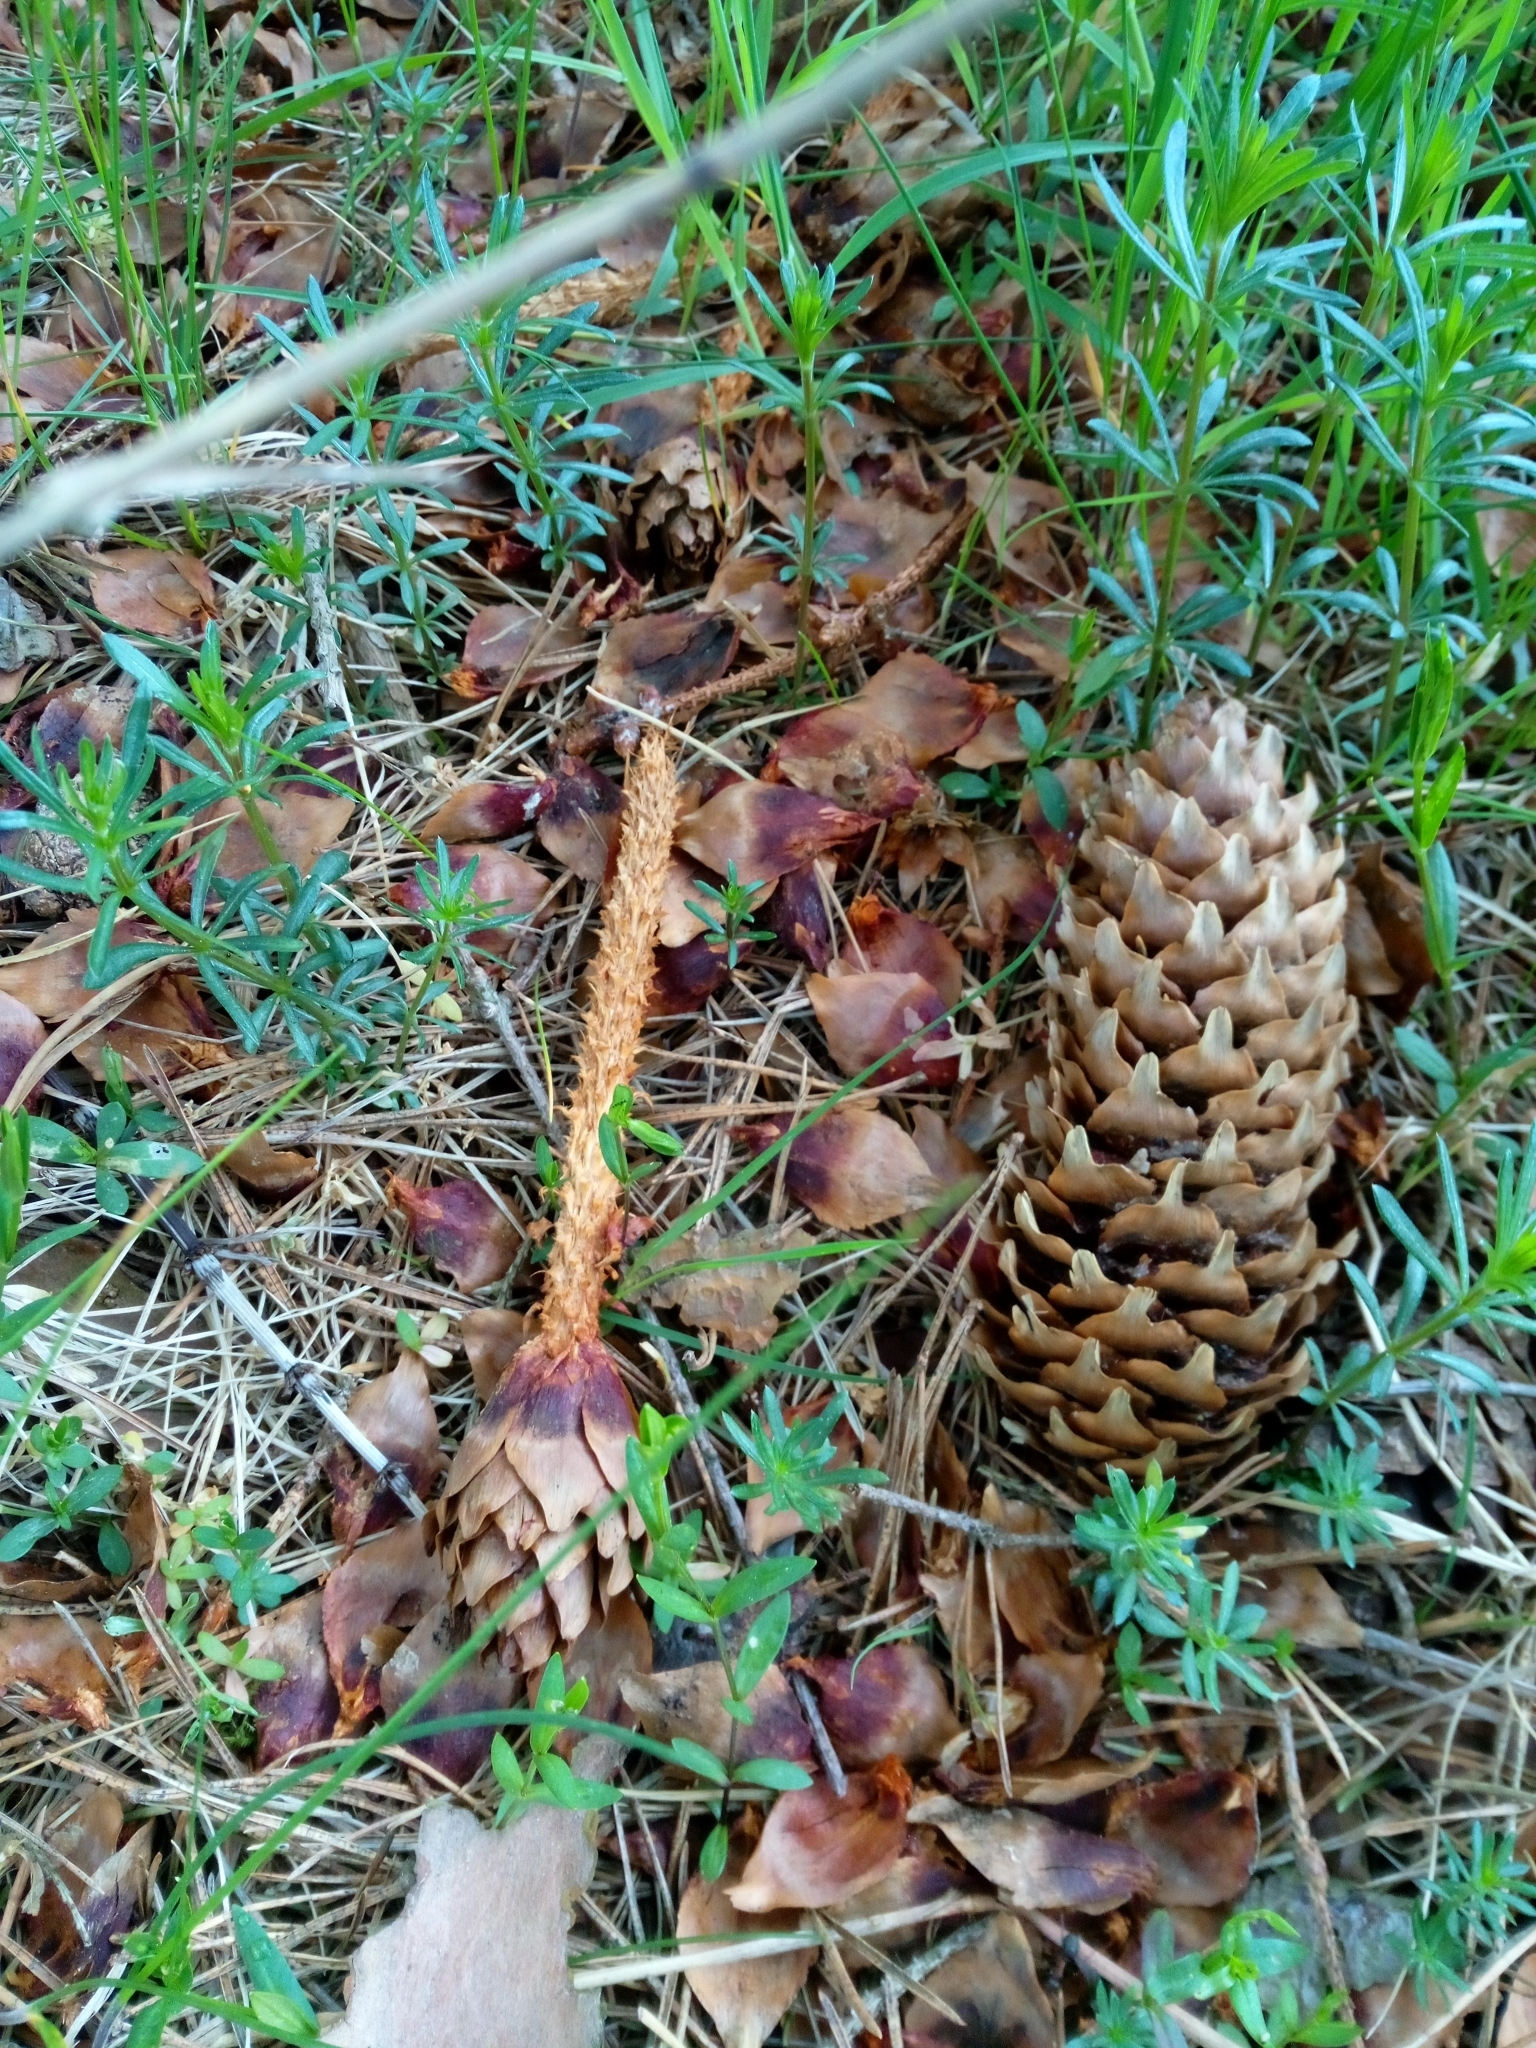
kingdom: Animalia
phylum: Chordata
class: Mammalia
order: Rodentia
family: Sciuridae
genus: Sciurus
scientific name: Sciurus vulgaris
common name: Eurasian red squirrel
